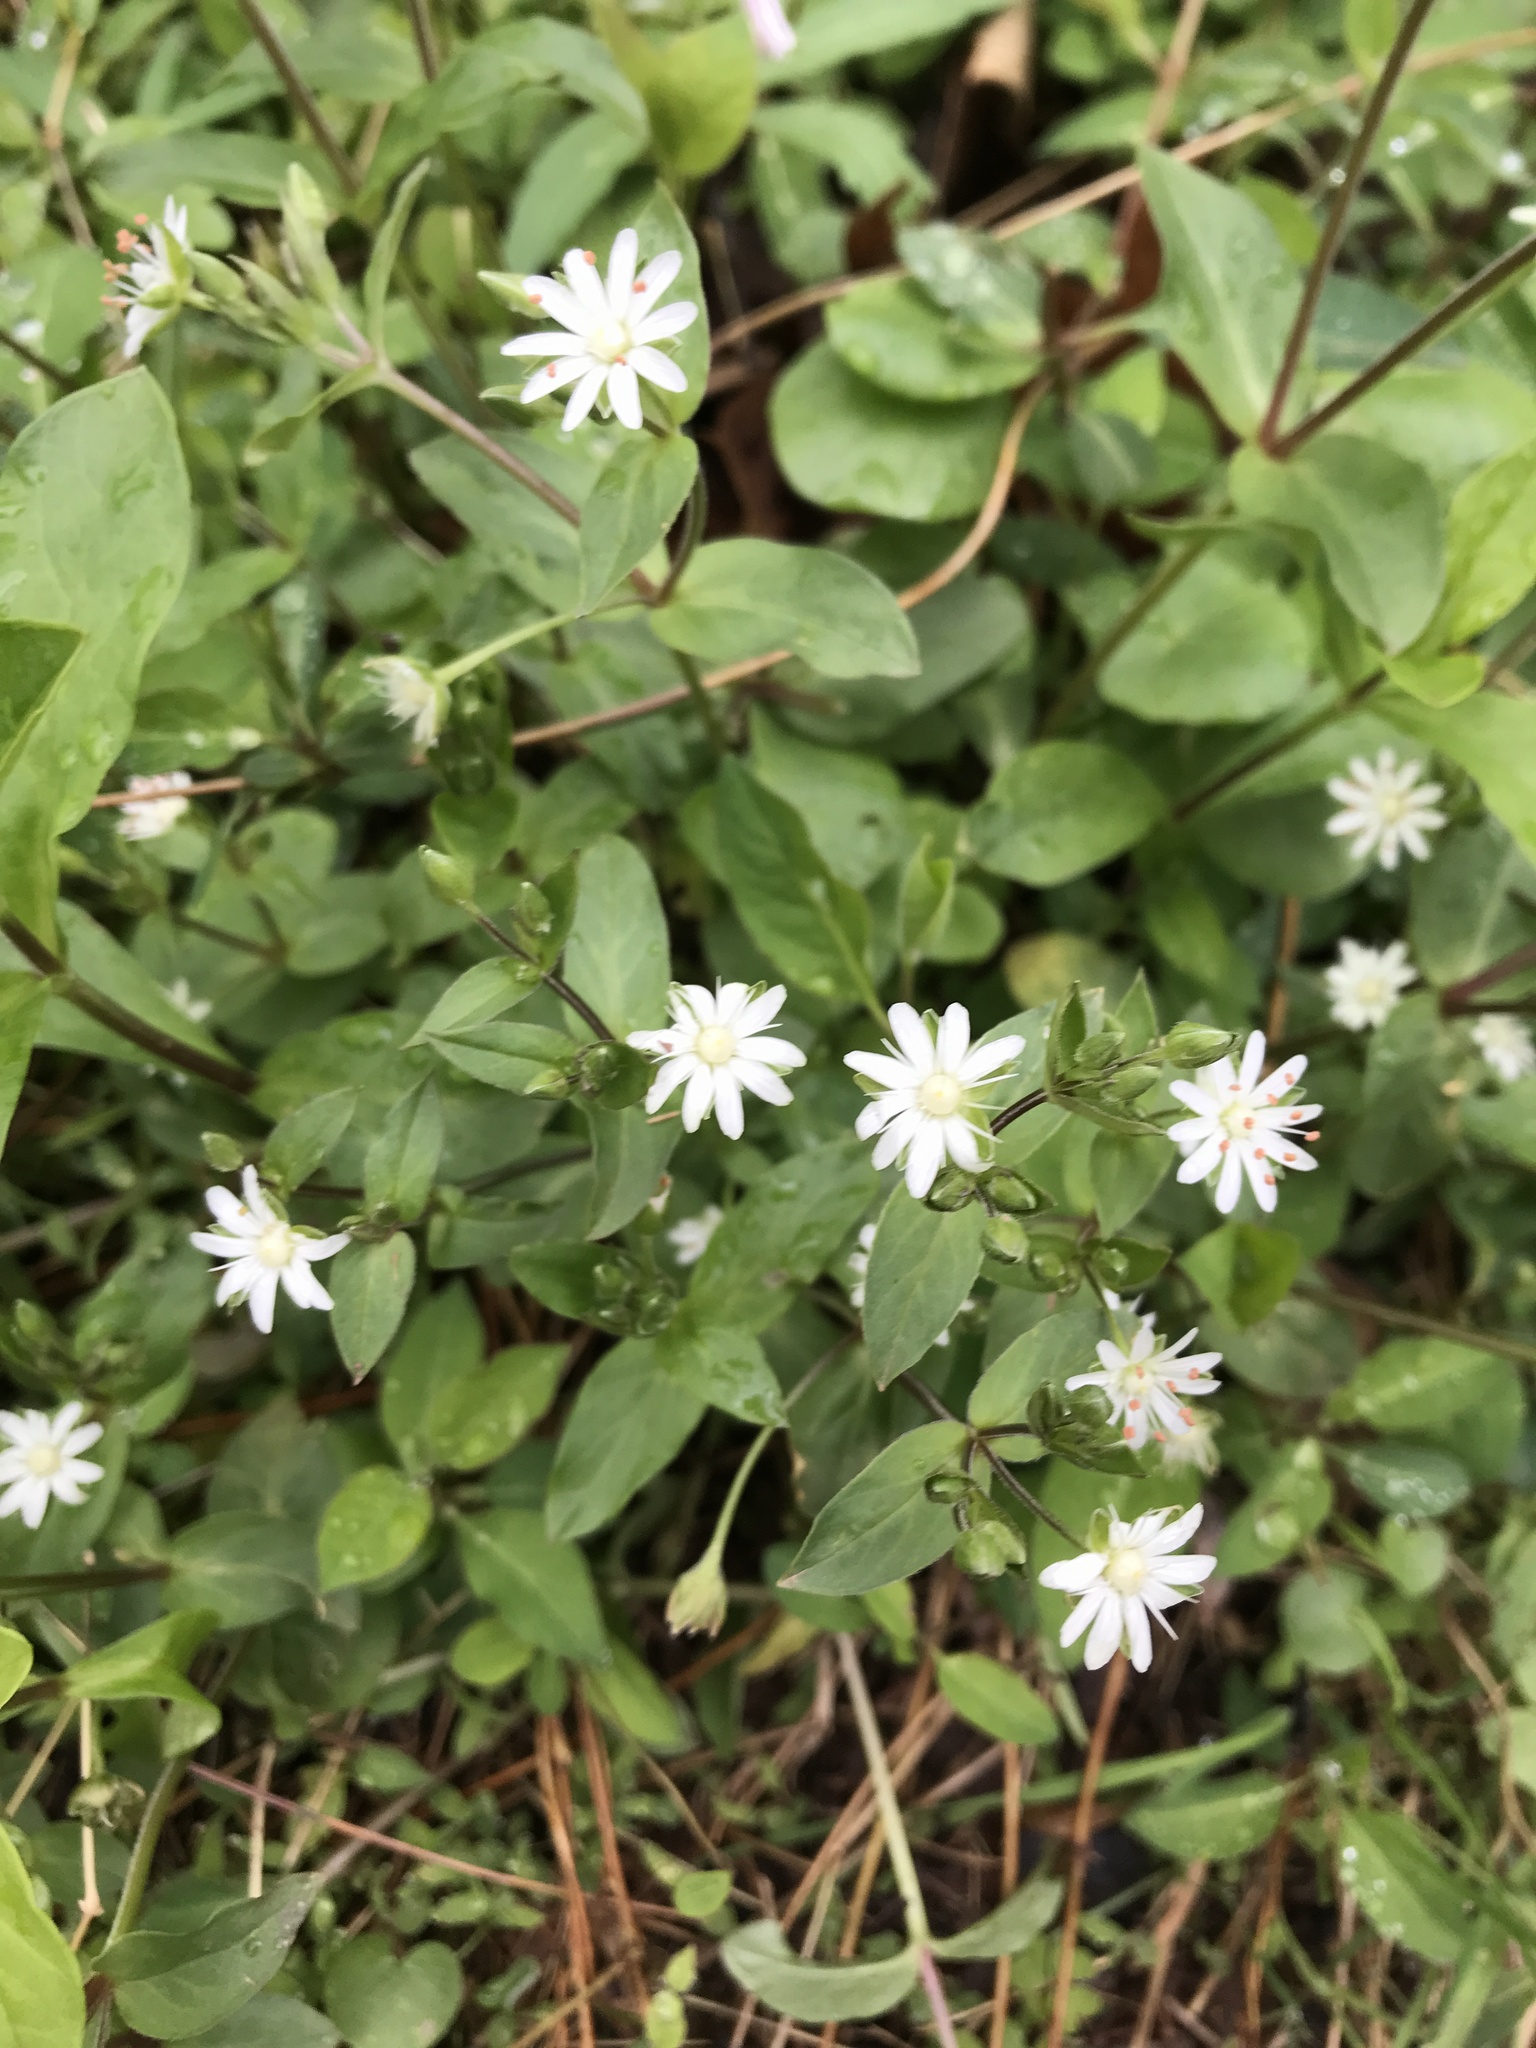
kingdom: Plantae
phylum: Tracheophyta
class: Magnoliopsida
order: Caryophyllales
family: Caryophyllaceae
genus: Stellaria
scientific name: Stellaria pubera
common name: Star chickweed
